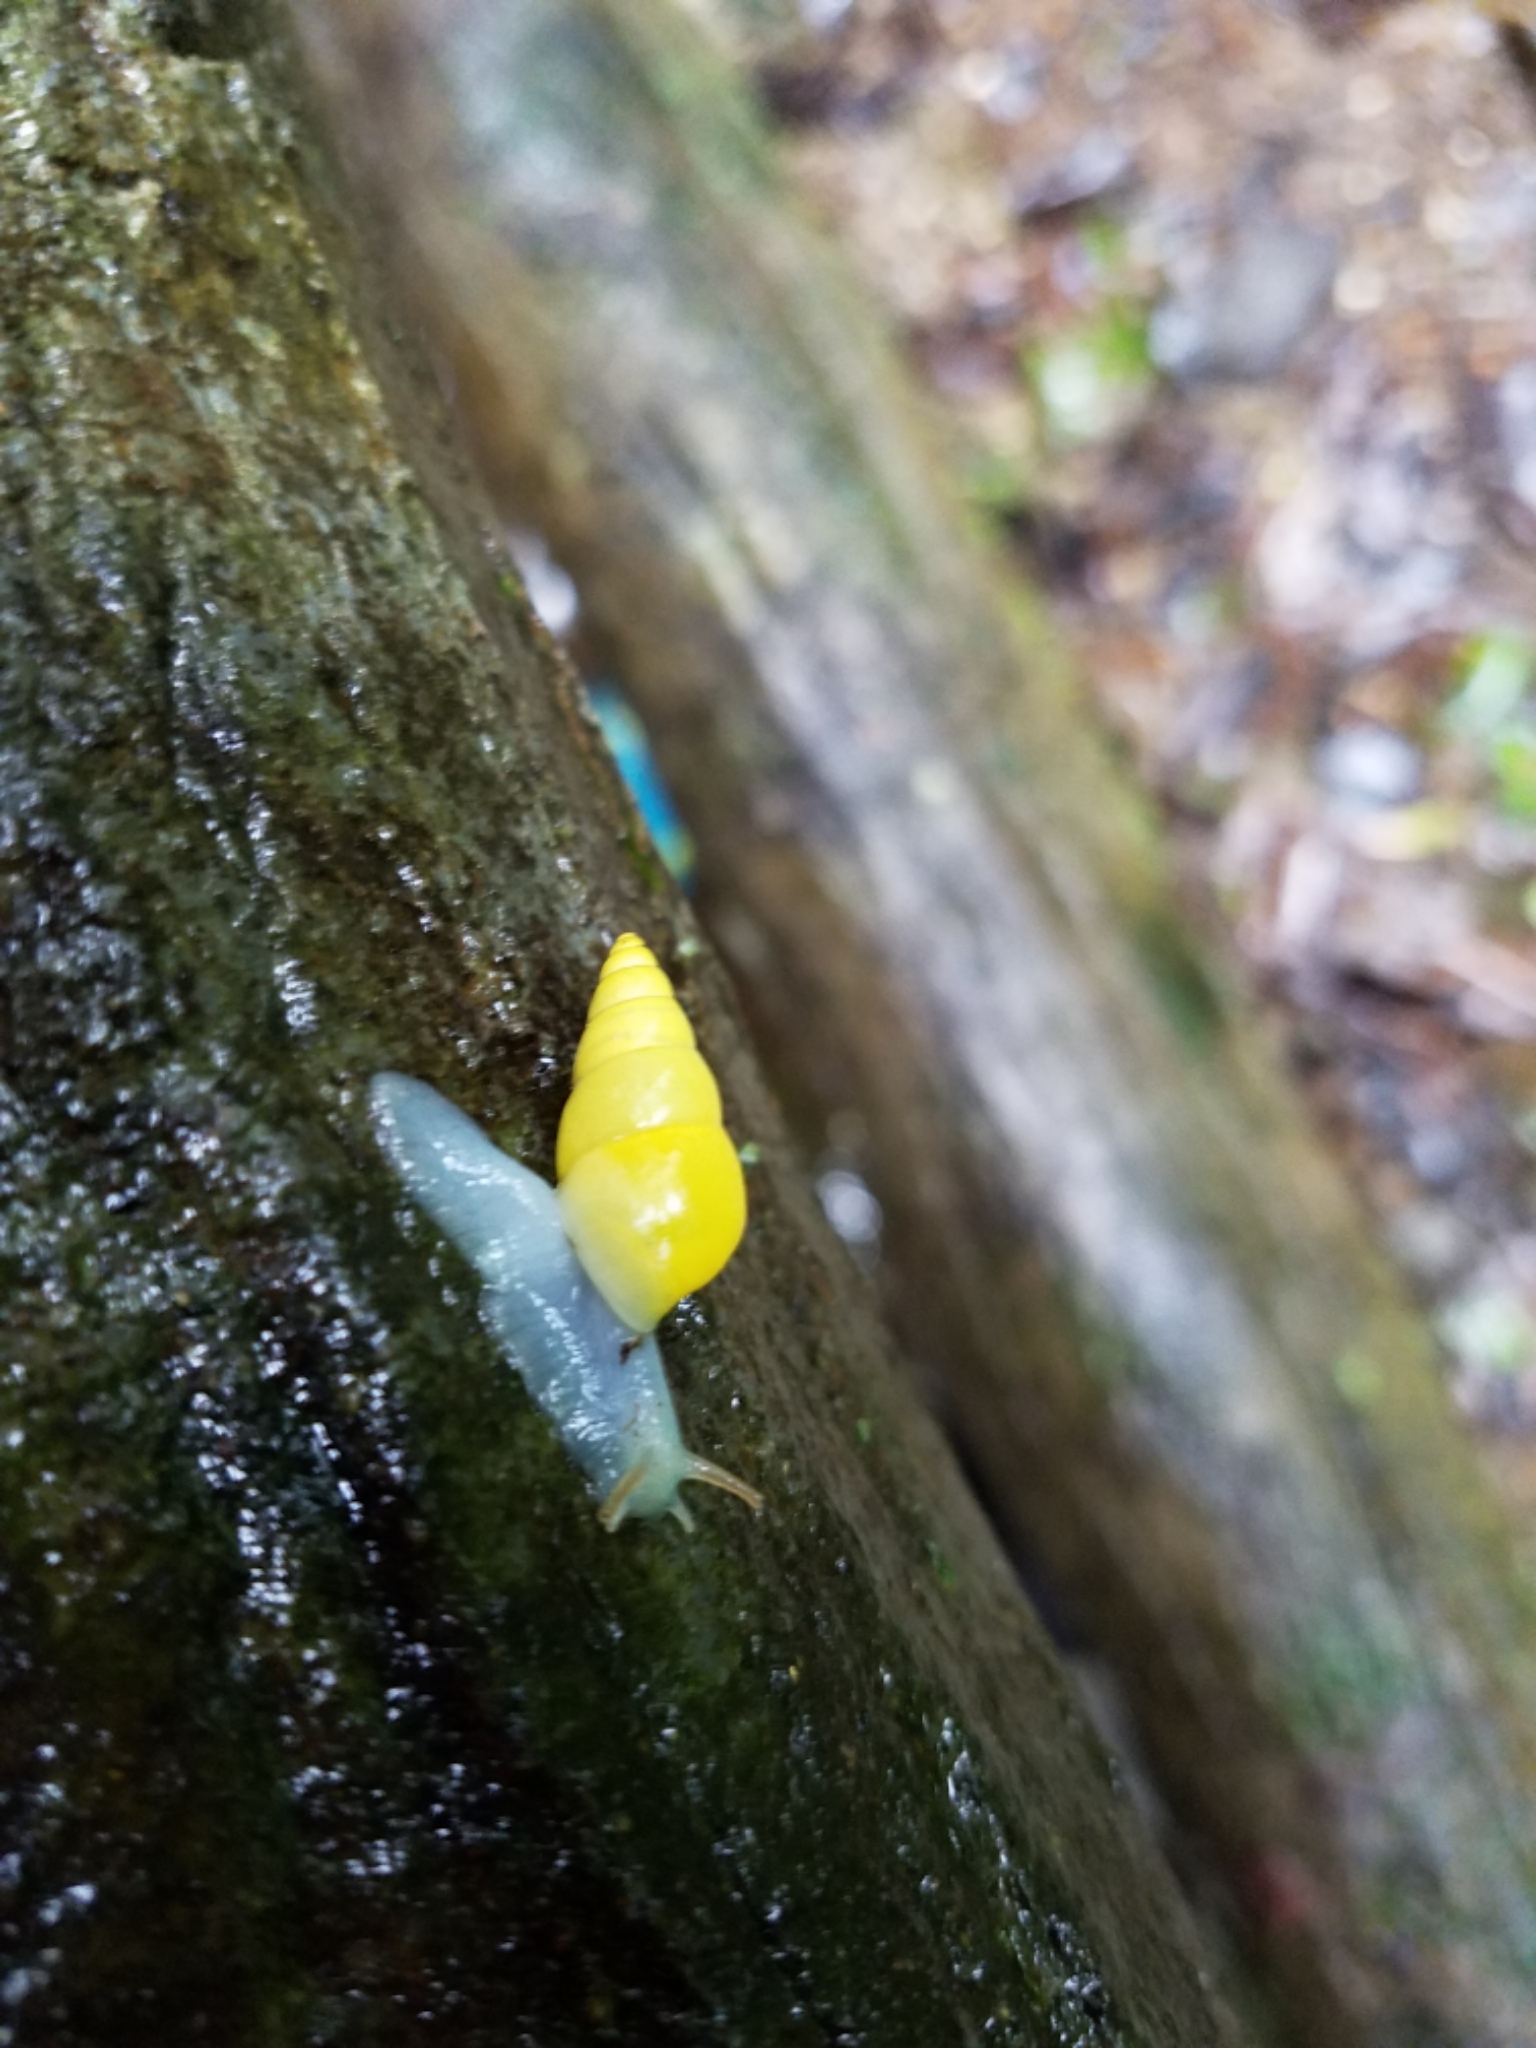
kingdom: Animalia
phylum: Mollusca
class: Gastropoda
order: Stylommatophora
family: Bulimulidae
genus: Drymaeus
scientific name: Drymaeus sulphureus
